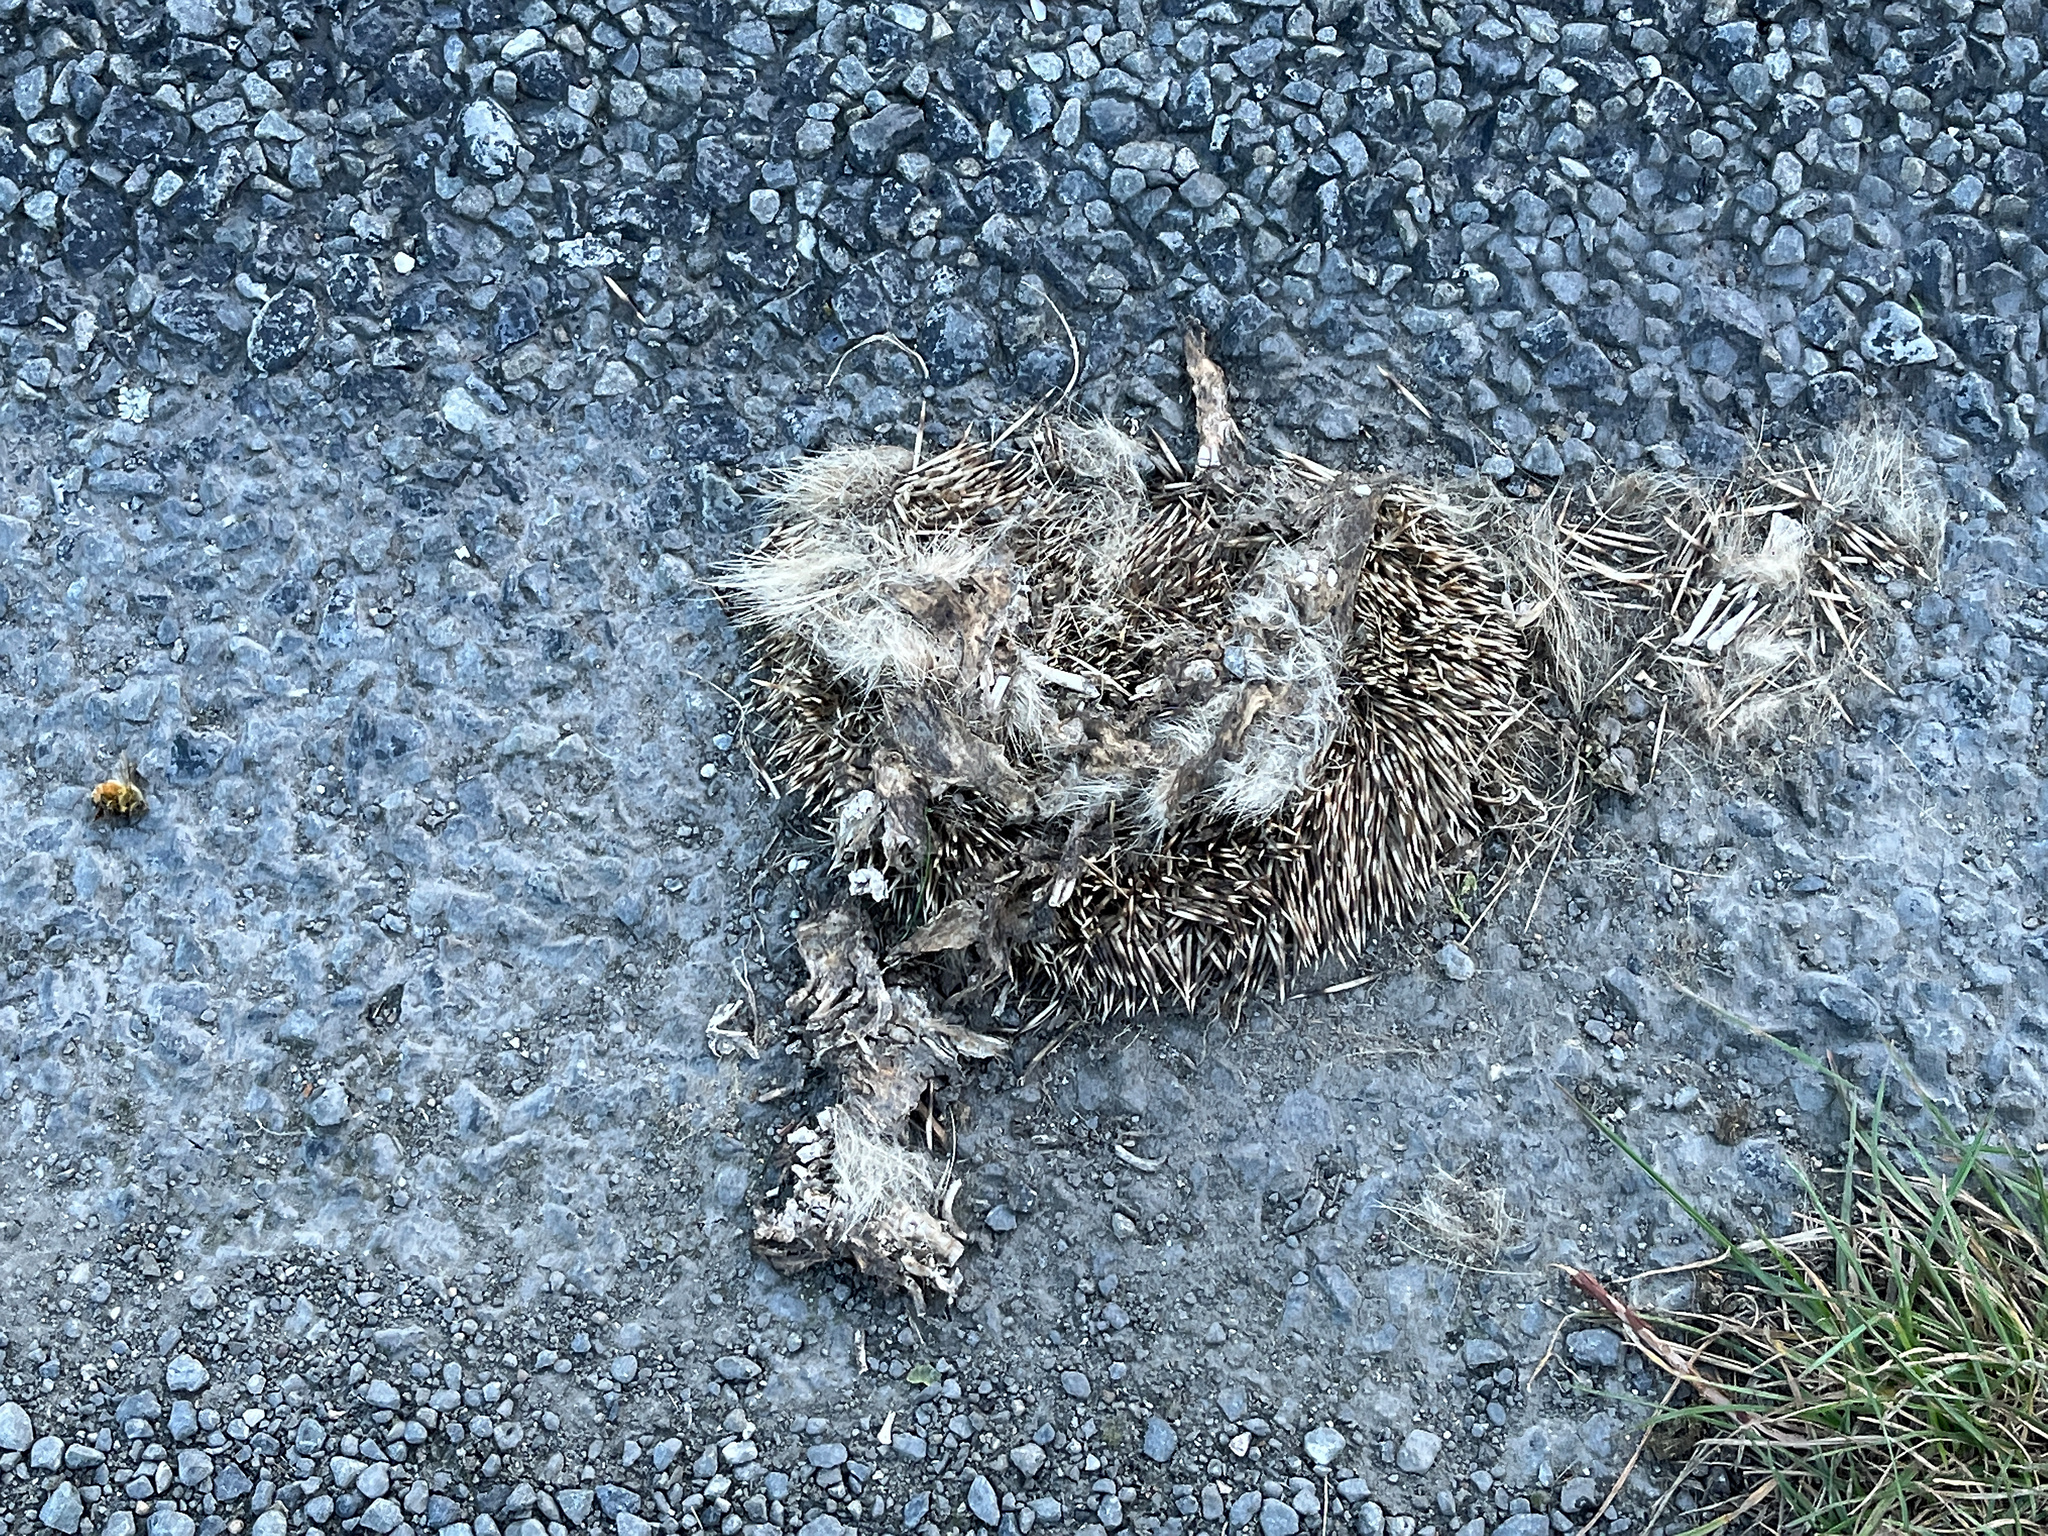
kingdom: Animalia
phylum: Chordata
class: Mammalia
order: Erinaceomorpha
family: Erinaceidae
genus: Erinaceus
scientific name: Erinaceus europaeus
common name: West european hedgehog
